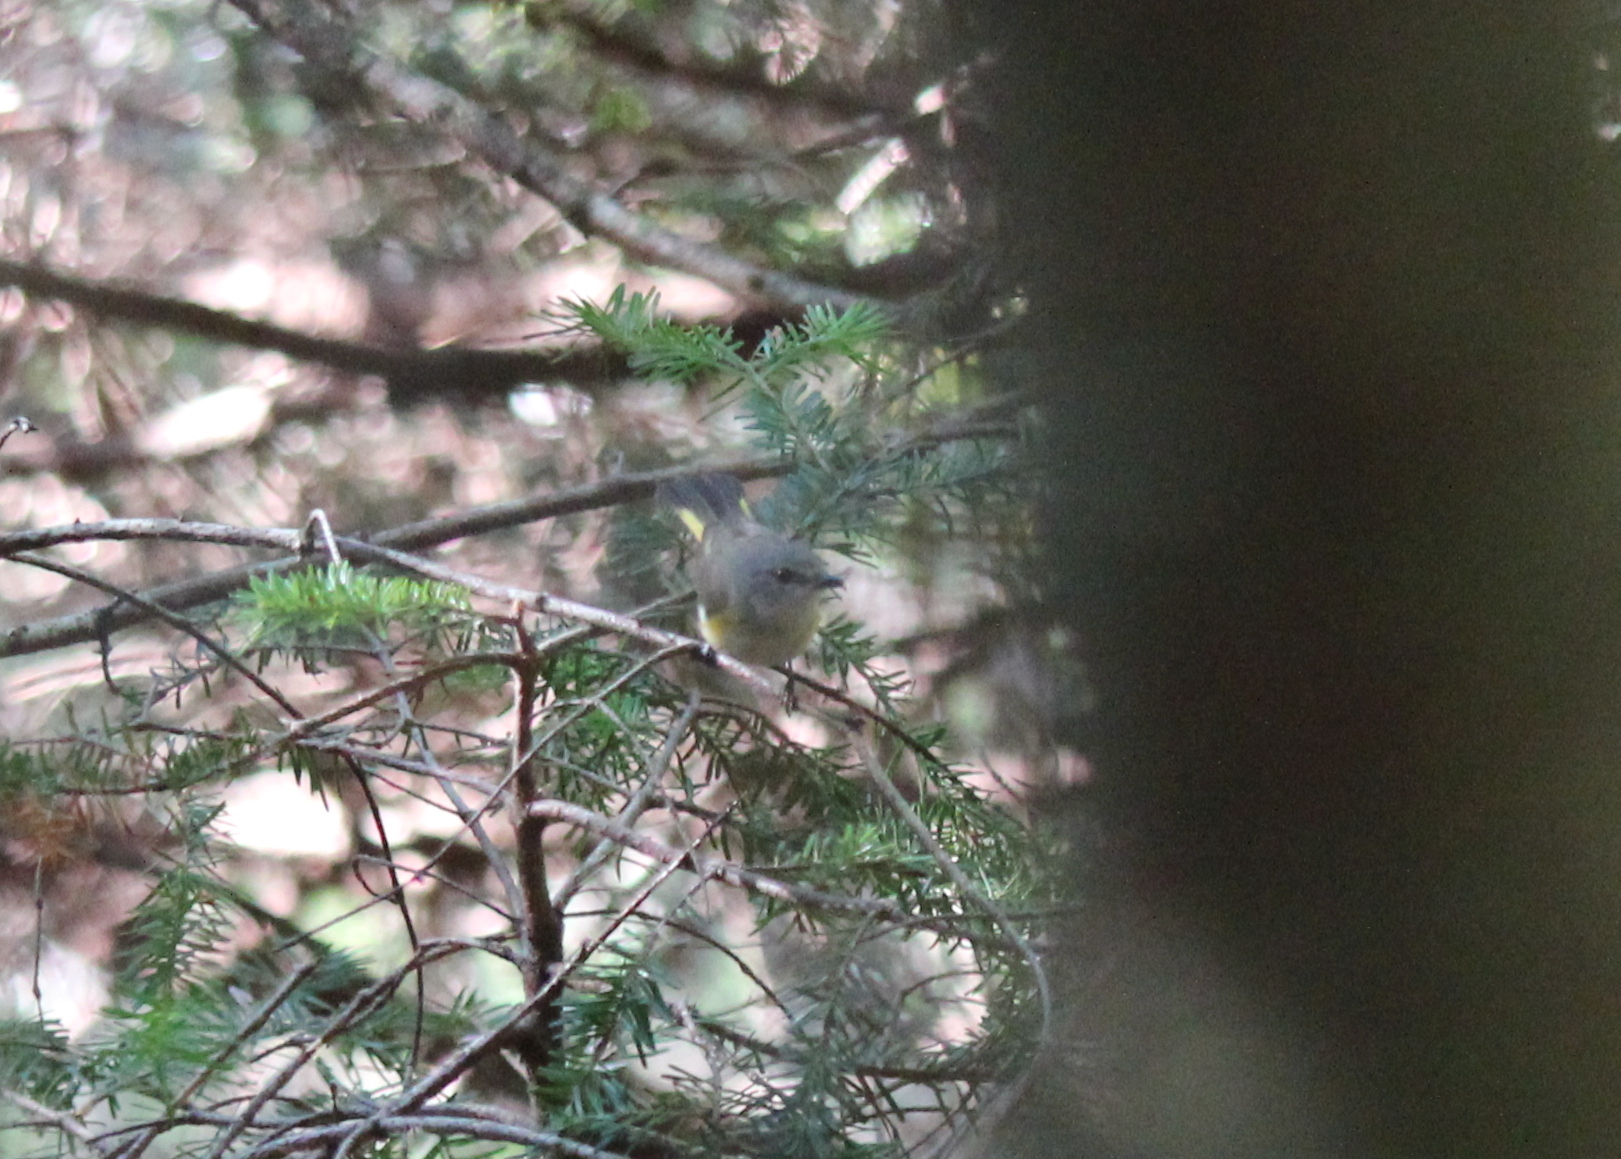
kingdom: Animalia
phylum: Chordata
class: Aves
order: Passeriformes
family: Parulidae
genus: Setophaga
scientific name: Setophaga ruticilla
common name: American redstart
